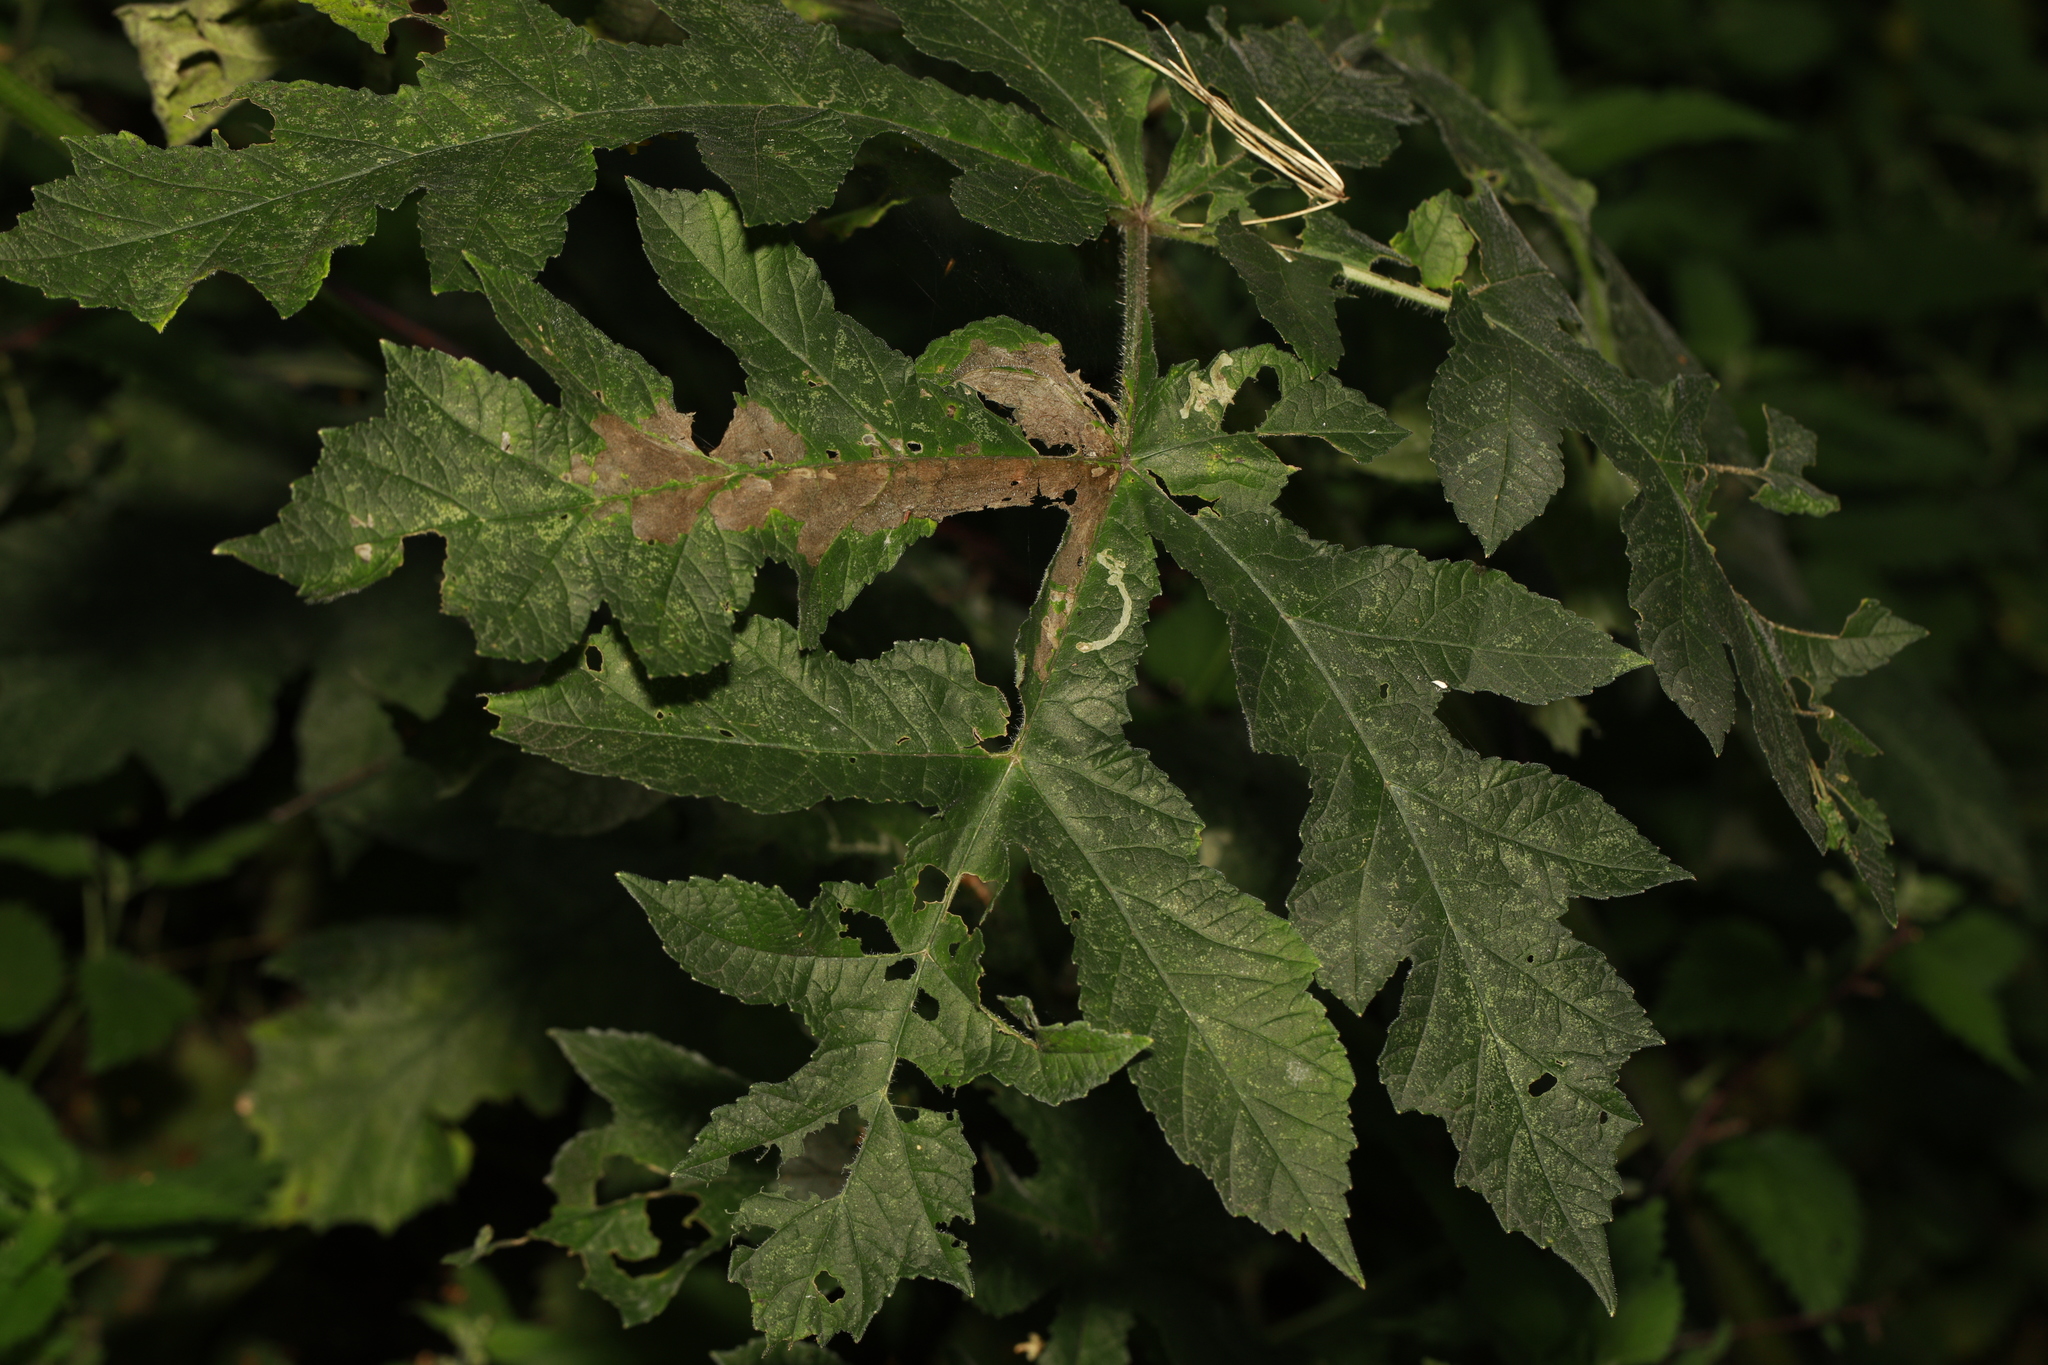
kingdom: Animalia
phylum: Arthropoda
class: Insecta
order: Lepidoptera
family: Epermeniidae
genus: Epermenia
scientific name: Epermenia chaerophyllellus
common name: Garden lance-wing
